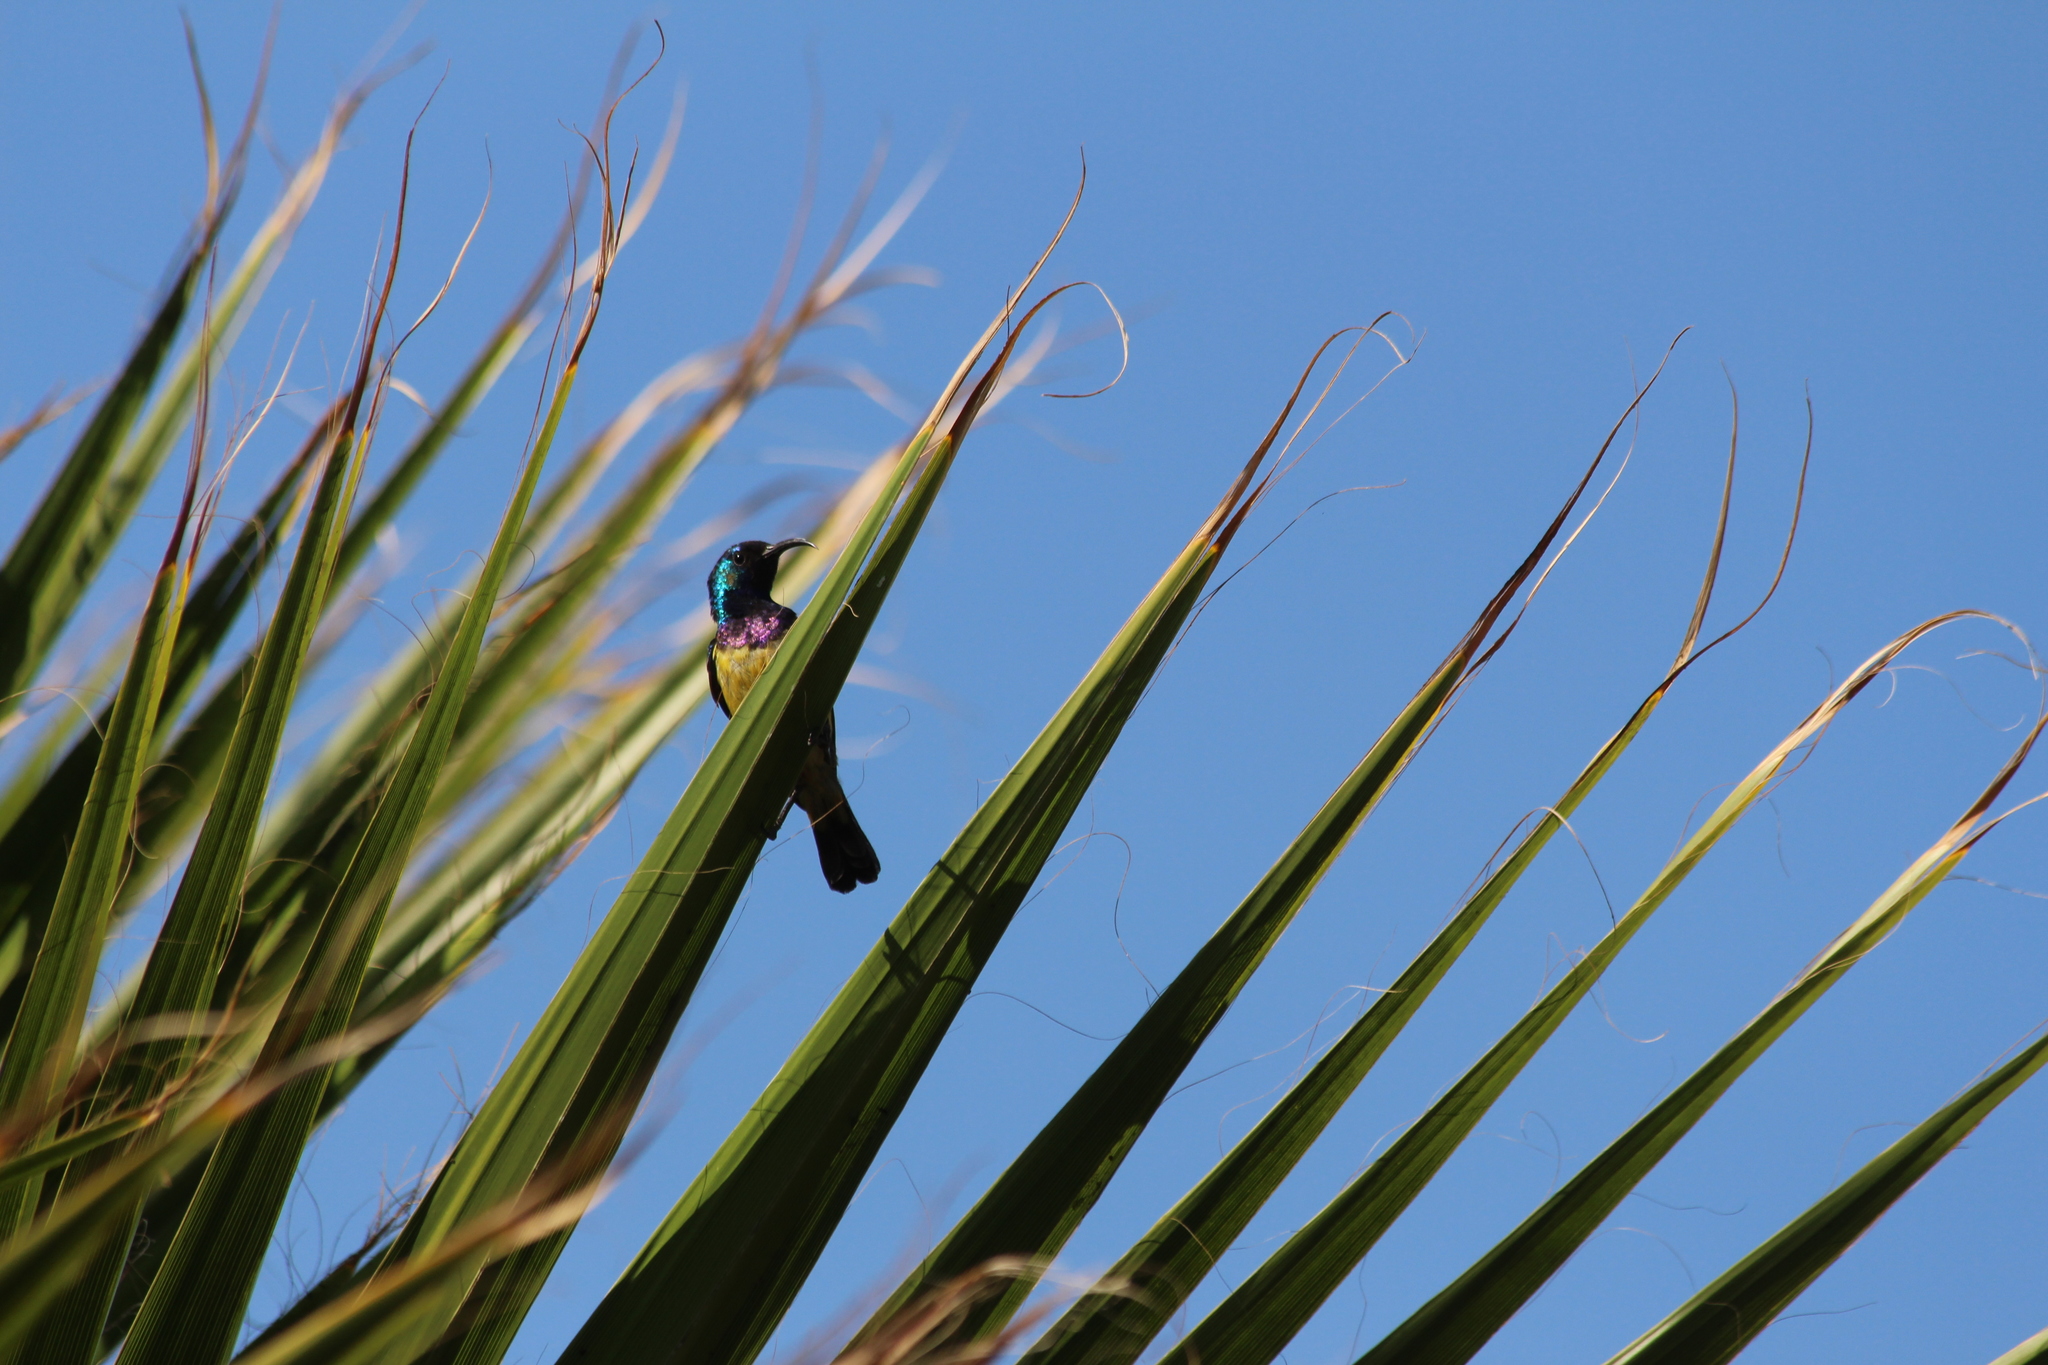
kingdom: Animalia
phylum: Chordata
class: Aves
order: Passeriformes
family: Nectariniidae
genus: Cinnyris
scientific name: Cinnyris venustus
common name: Variable sunbird
